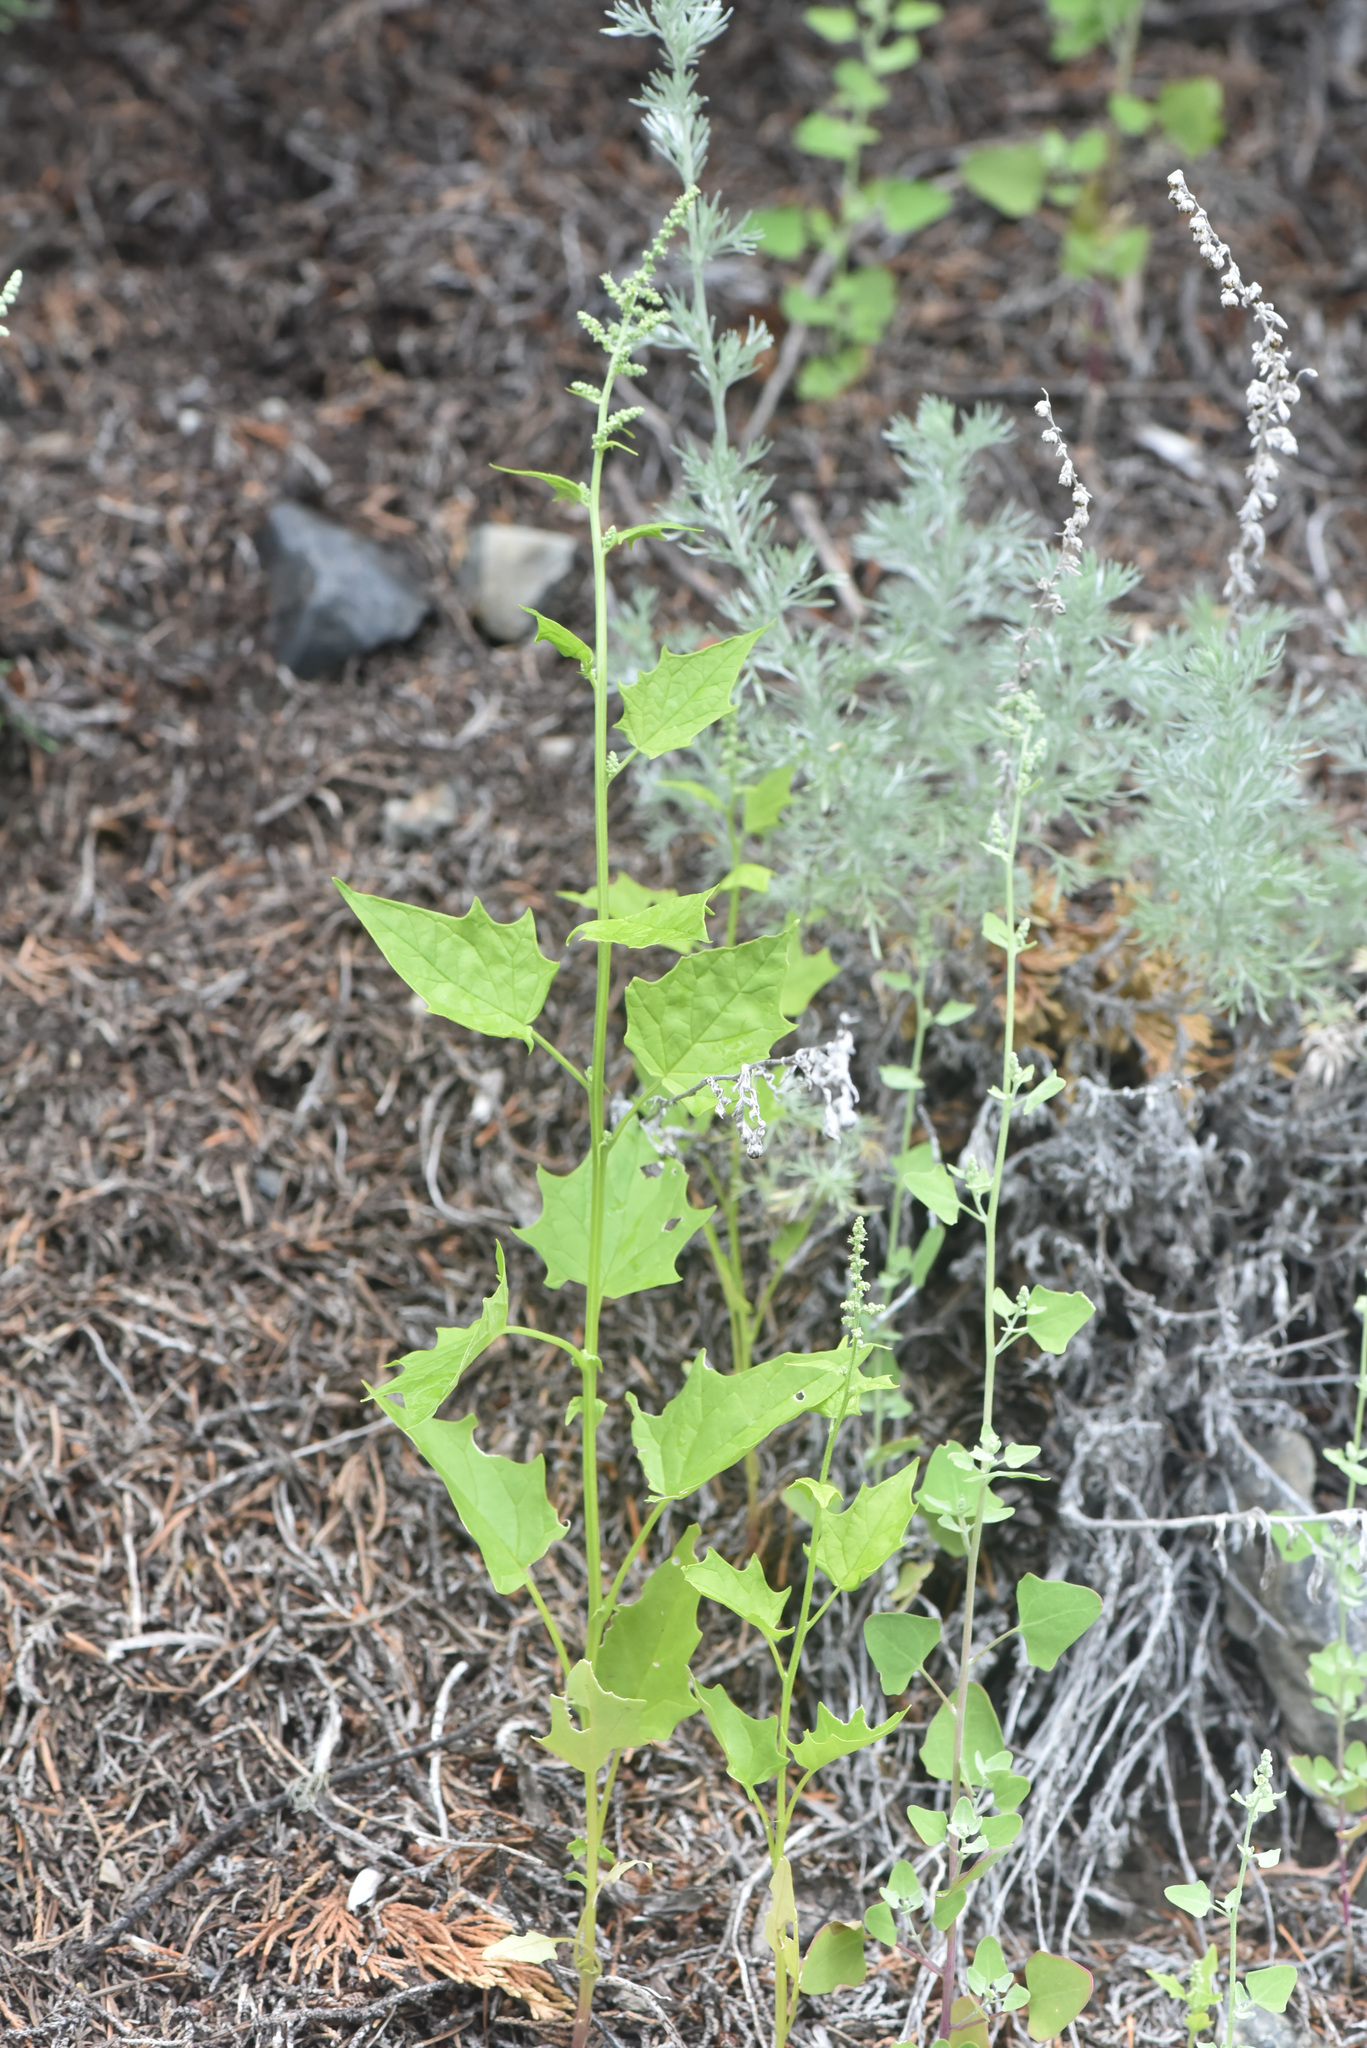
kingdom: Plantae
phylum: Tracheophyta
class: Magnoliopsida
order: Caryophyllales
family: Amaranthaceae
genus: Chenopodiastrum
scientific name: Chenopodiastrum hybridum
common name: Mapleleaf goosefoot
